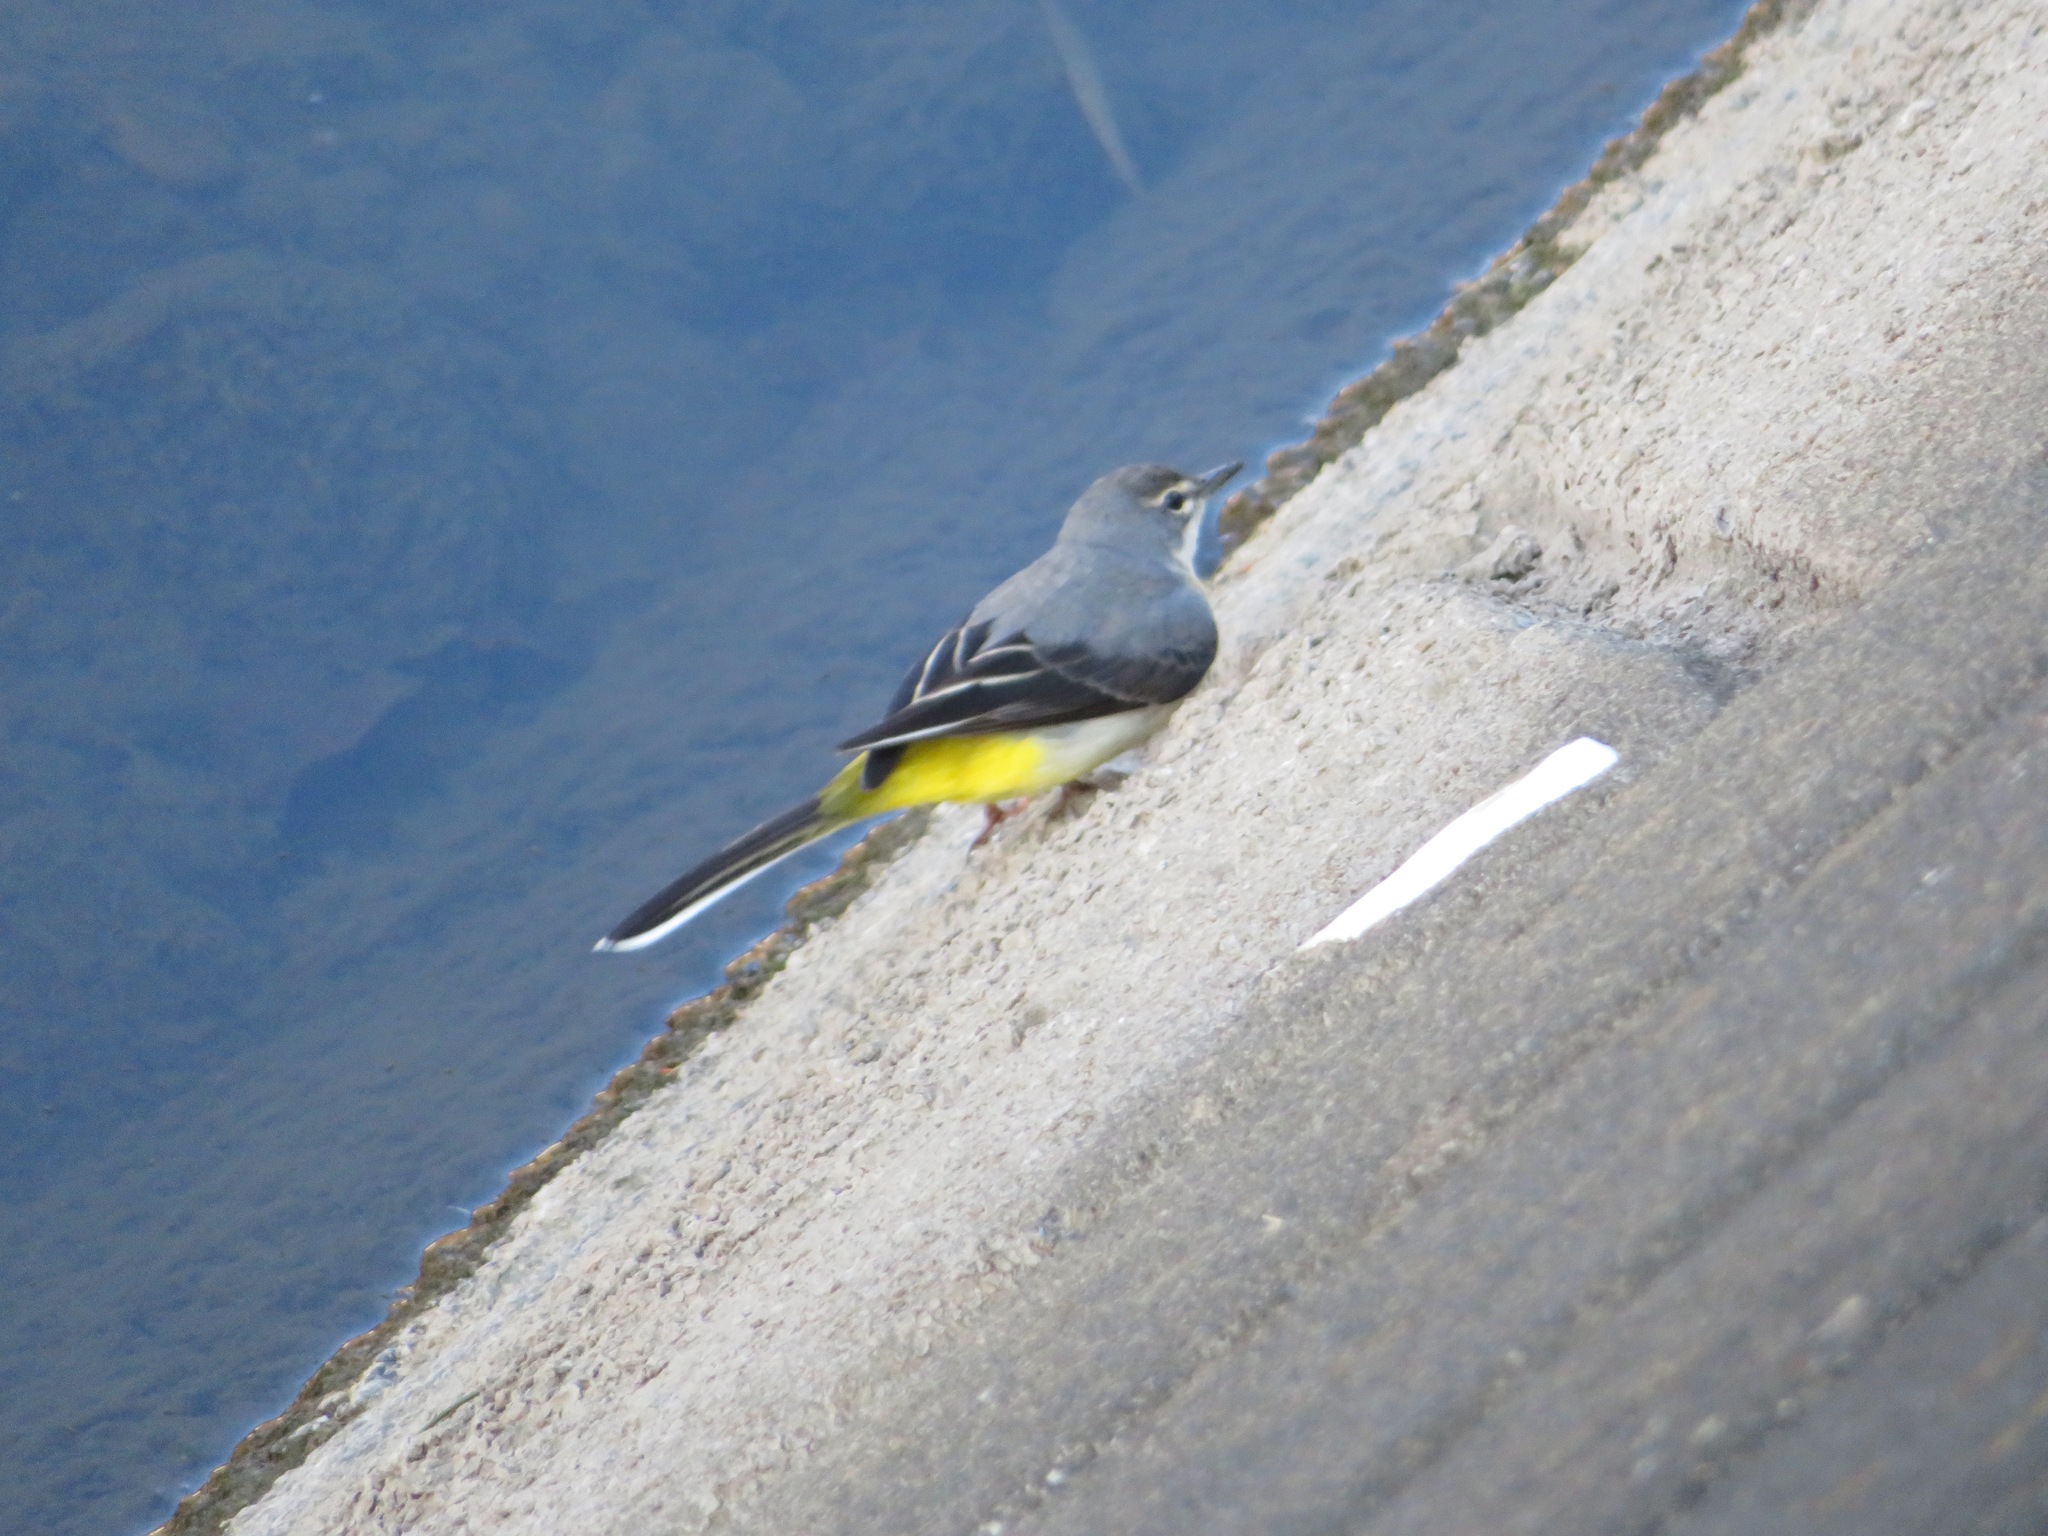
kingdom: Animalia
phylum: Chordata
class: Aves
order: Passeriformes
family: Motacillidae
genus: Motacilla
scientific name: Motacilla cinerea
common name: Grey wagtail
